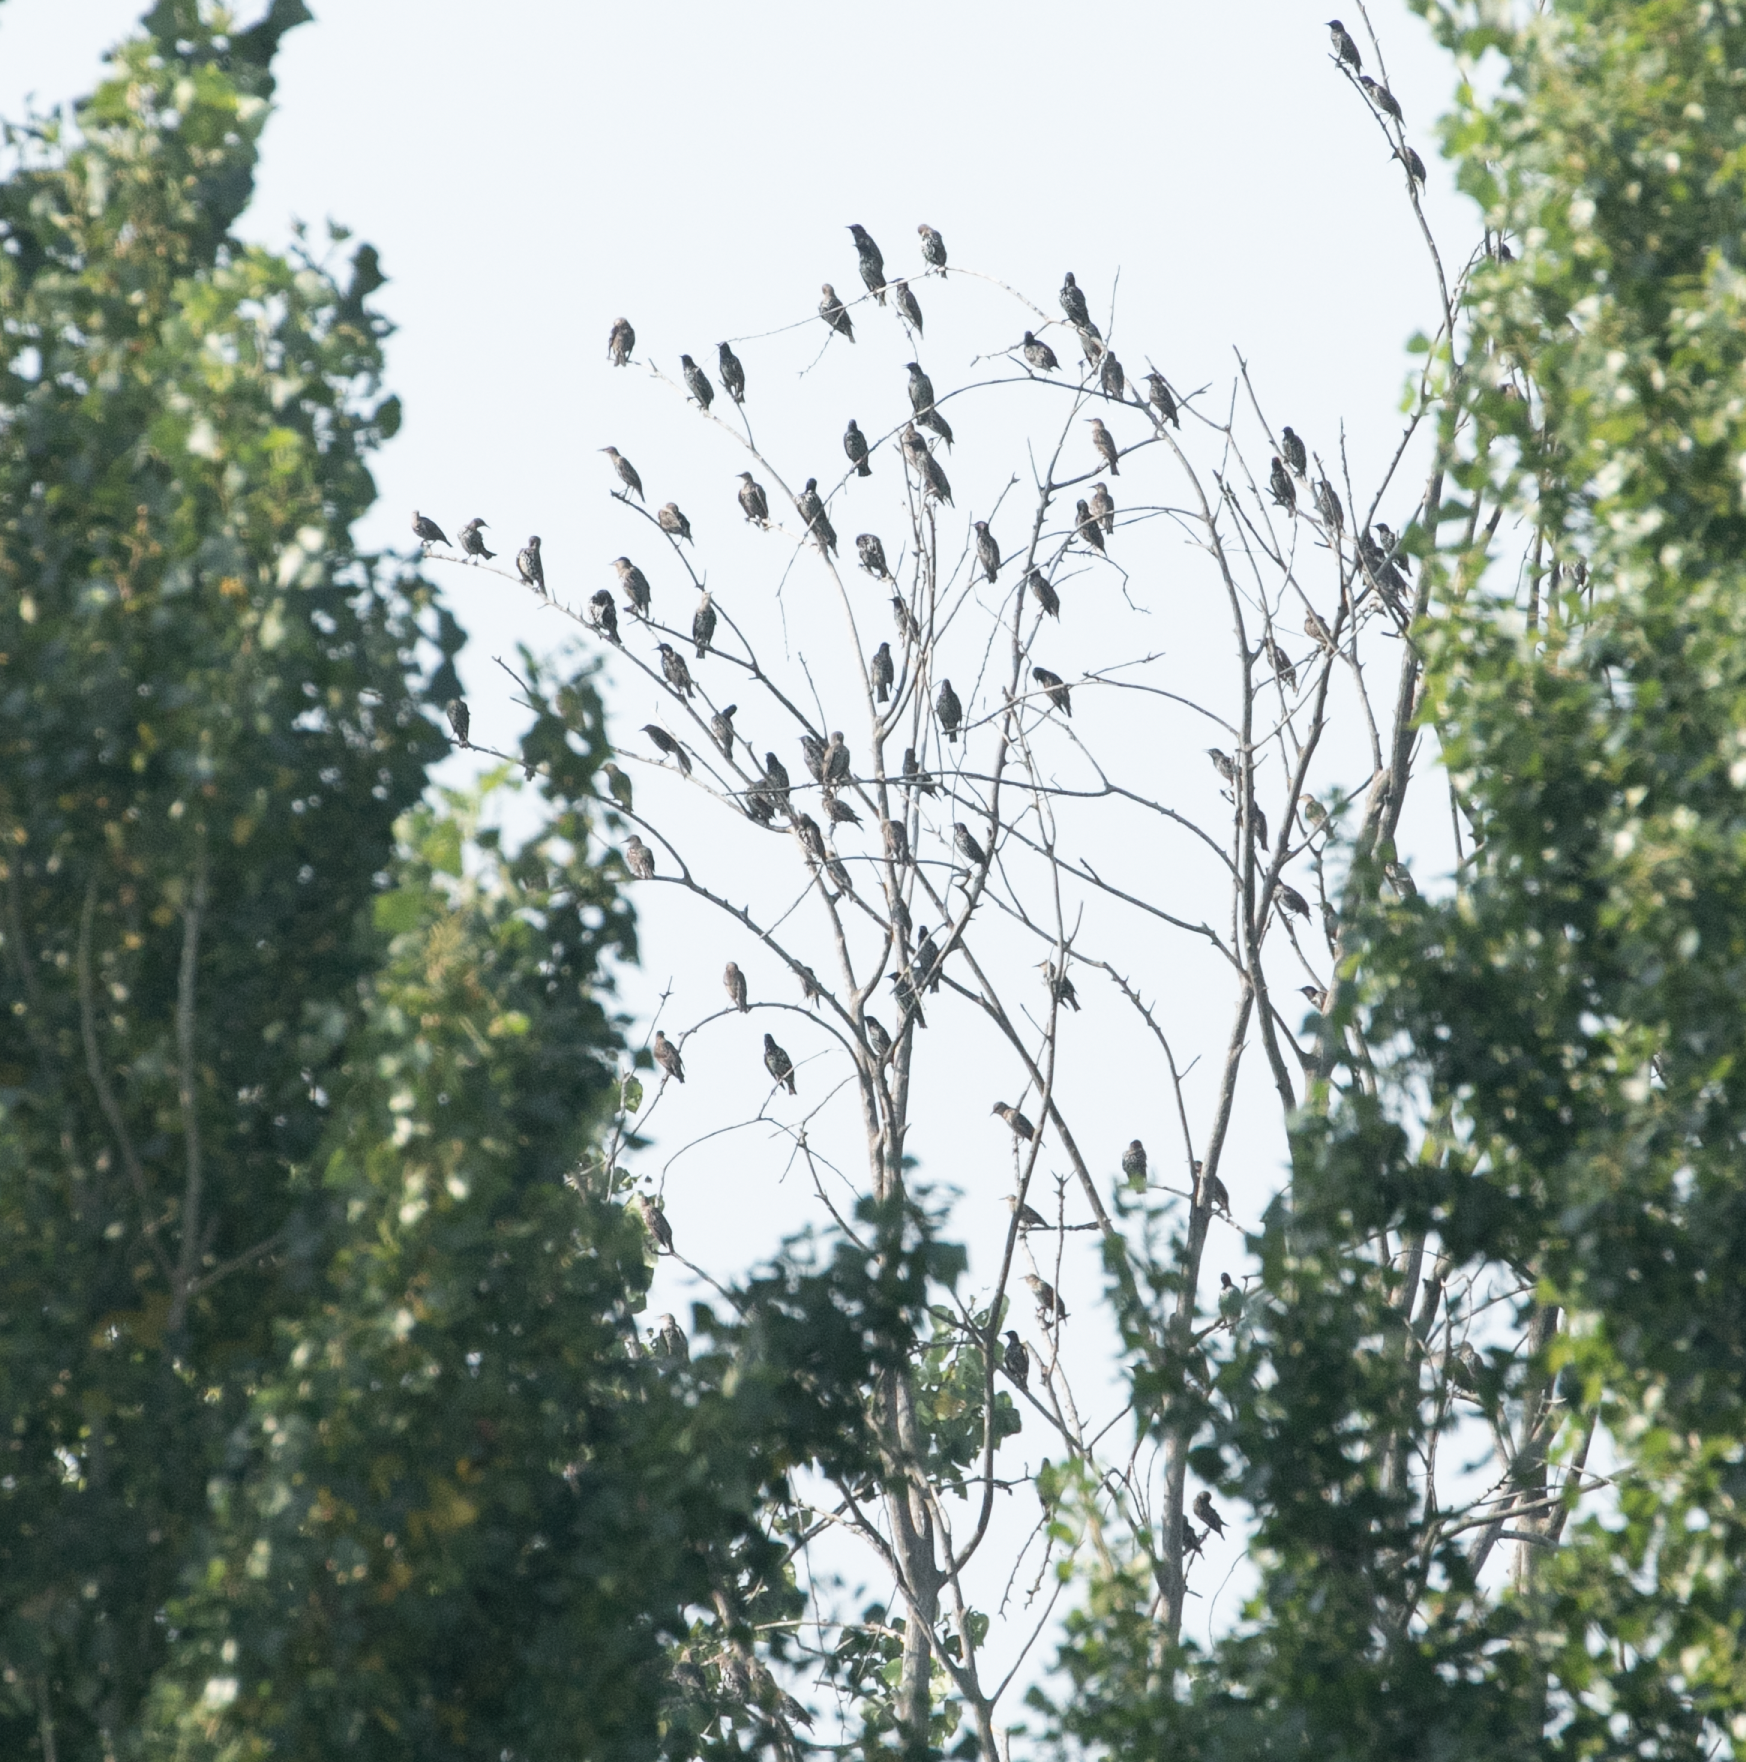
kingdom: Animalia
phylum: Chordata
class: Aves
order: Passeriformes
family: Sturnidae
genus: Sturnus
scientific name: Sturnus vulgaris
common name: Common starling
